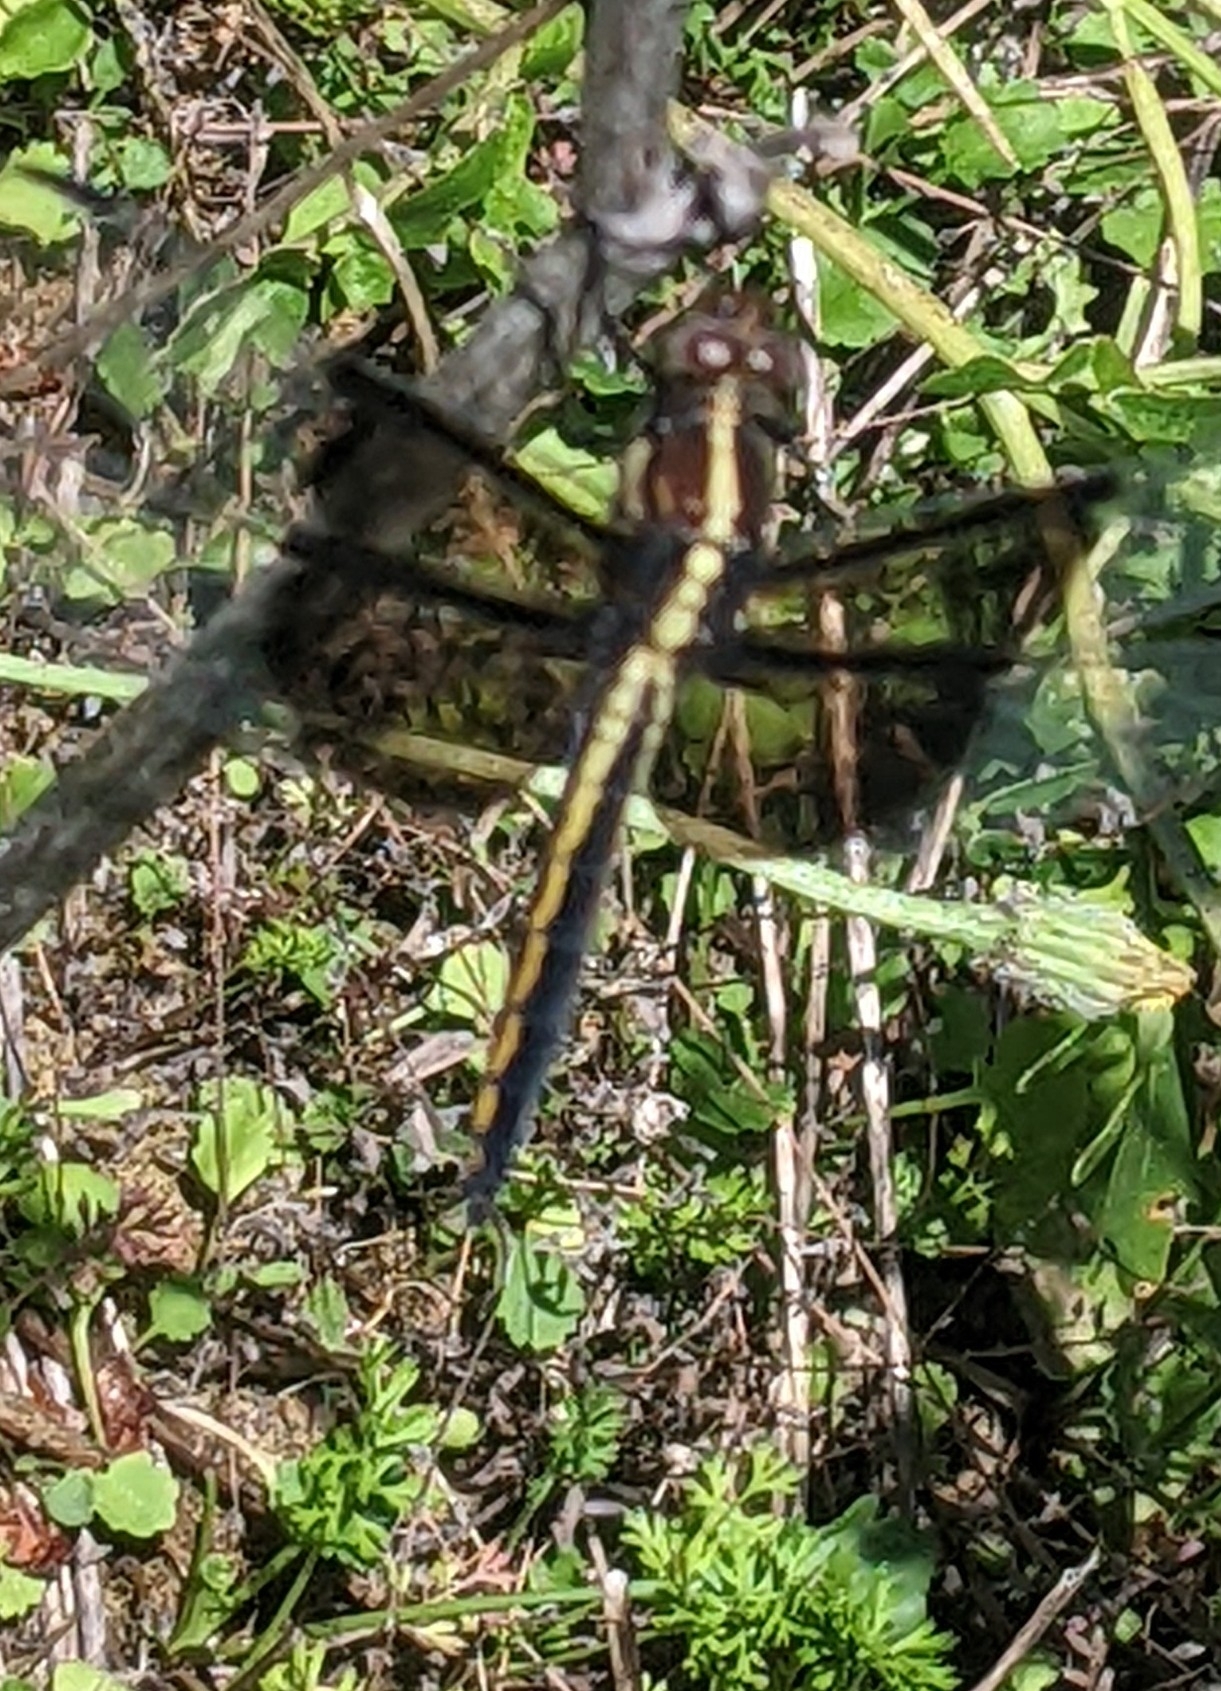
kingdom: Animalia
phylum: Arthropoda
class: Insecta
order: Odonata
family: Libellulidae
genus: Libellula
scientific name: Libellula luctuosa
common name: Widow skimmer
